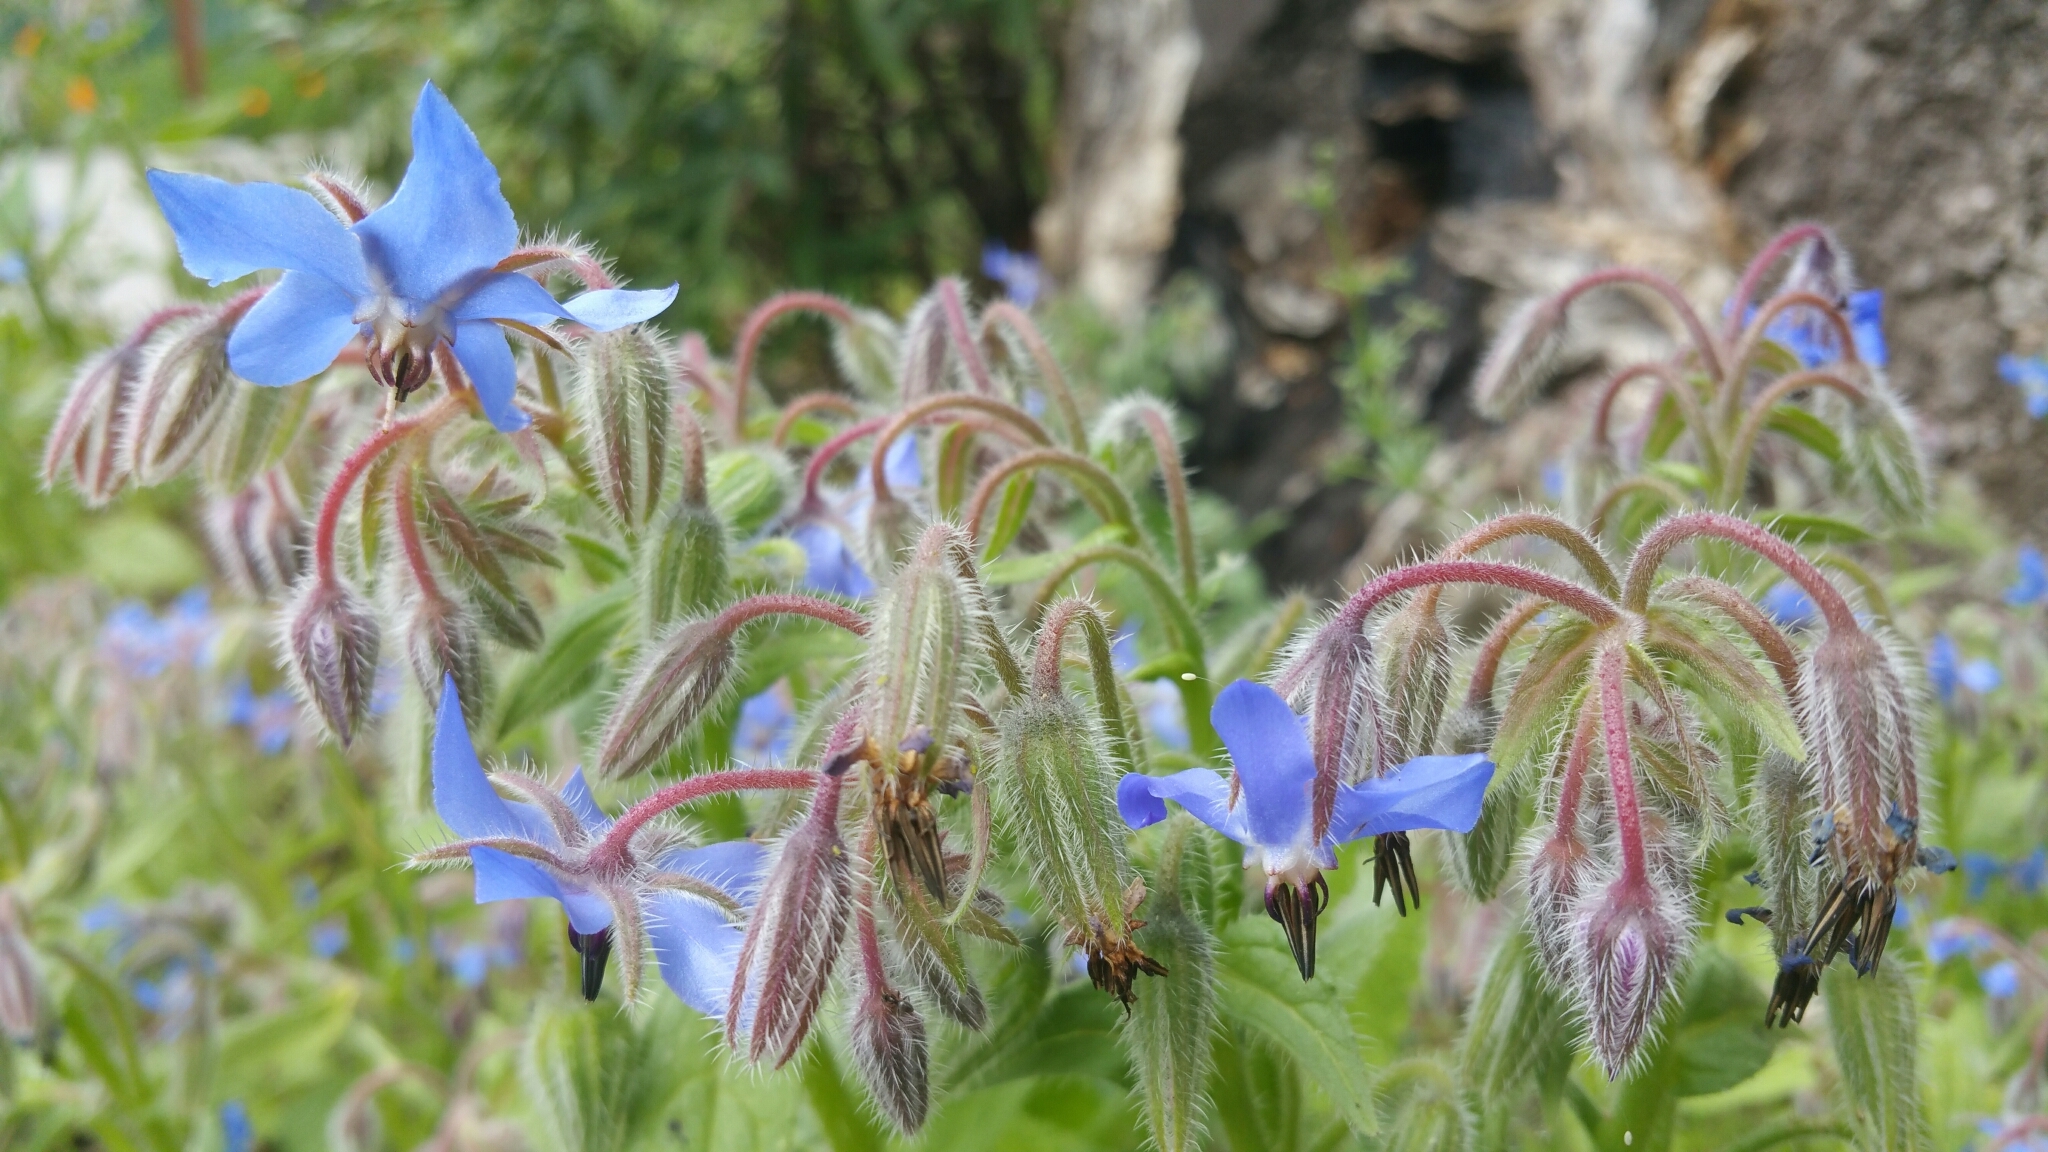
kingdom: Plantae
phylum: Tracheophyta
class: Magnoliopsida
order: Boraginales
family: Boraginaceae
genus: Borago
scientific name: Borago officinalis
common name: Borage
